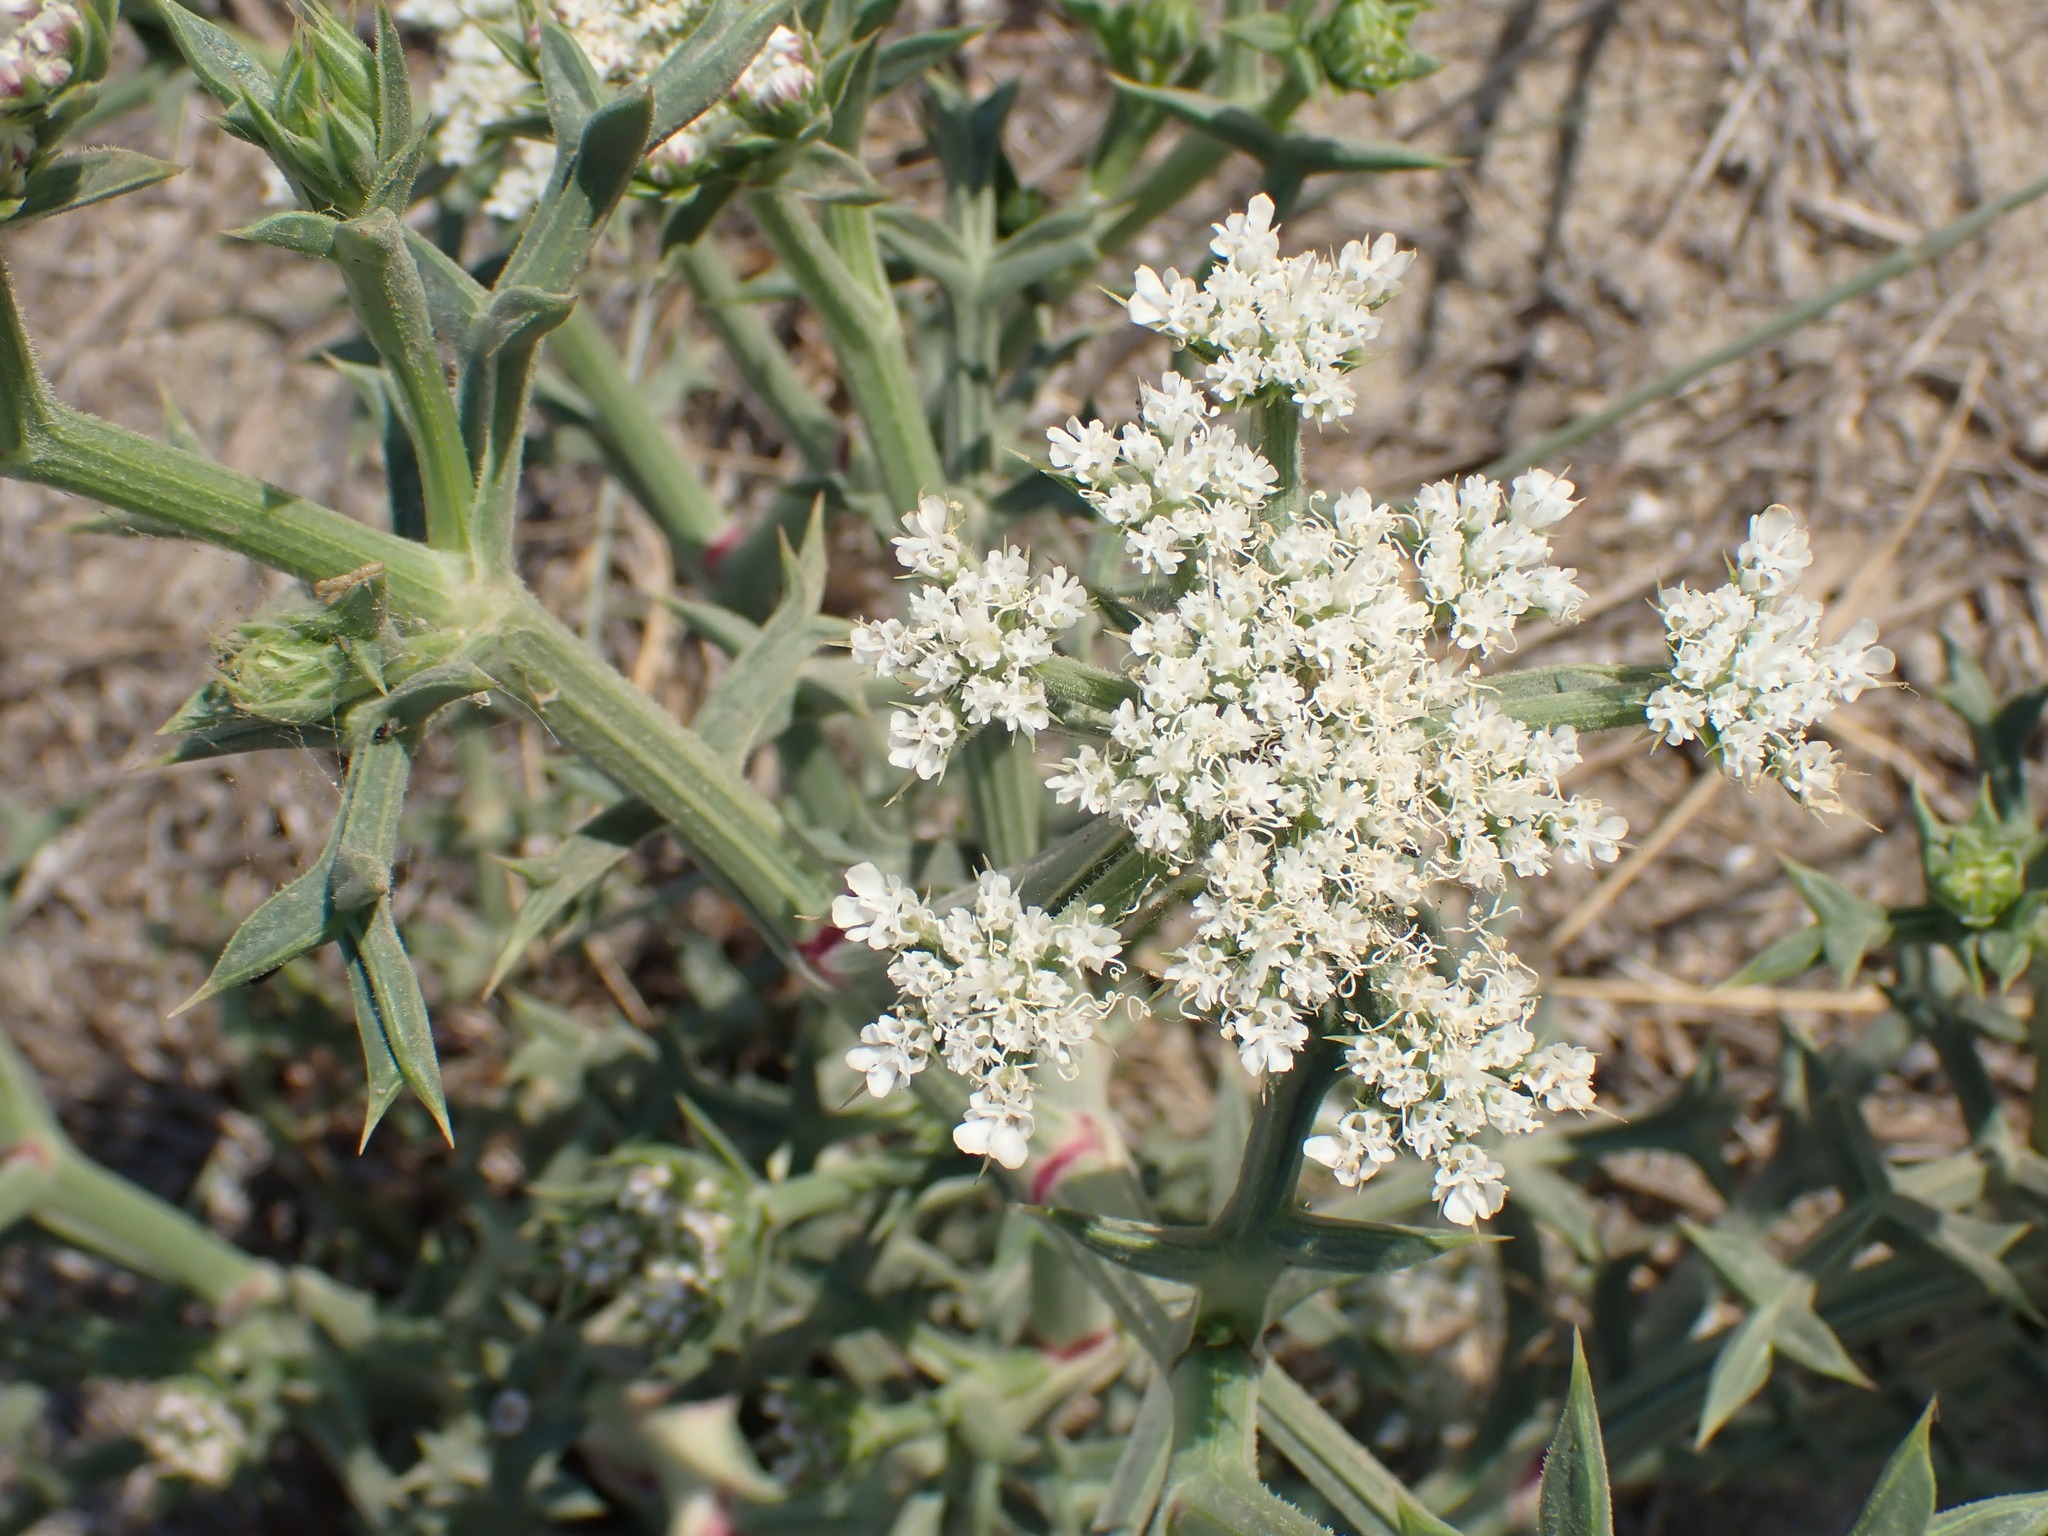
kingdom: Plantae
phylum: Tracheophyta
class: Magnoliopsida
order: Apiales
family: Apiaceae
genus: Echinophora
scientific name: Echinophora spinosa
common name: Prickly samphire
